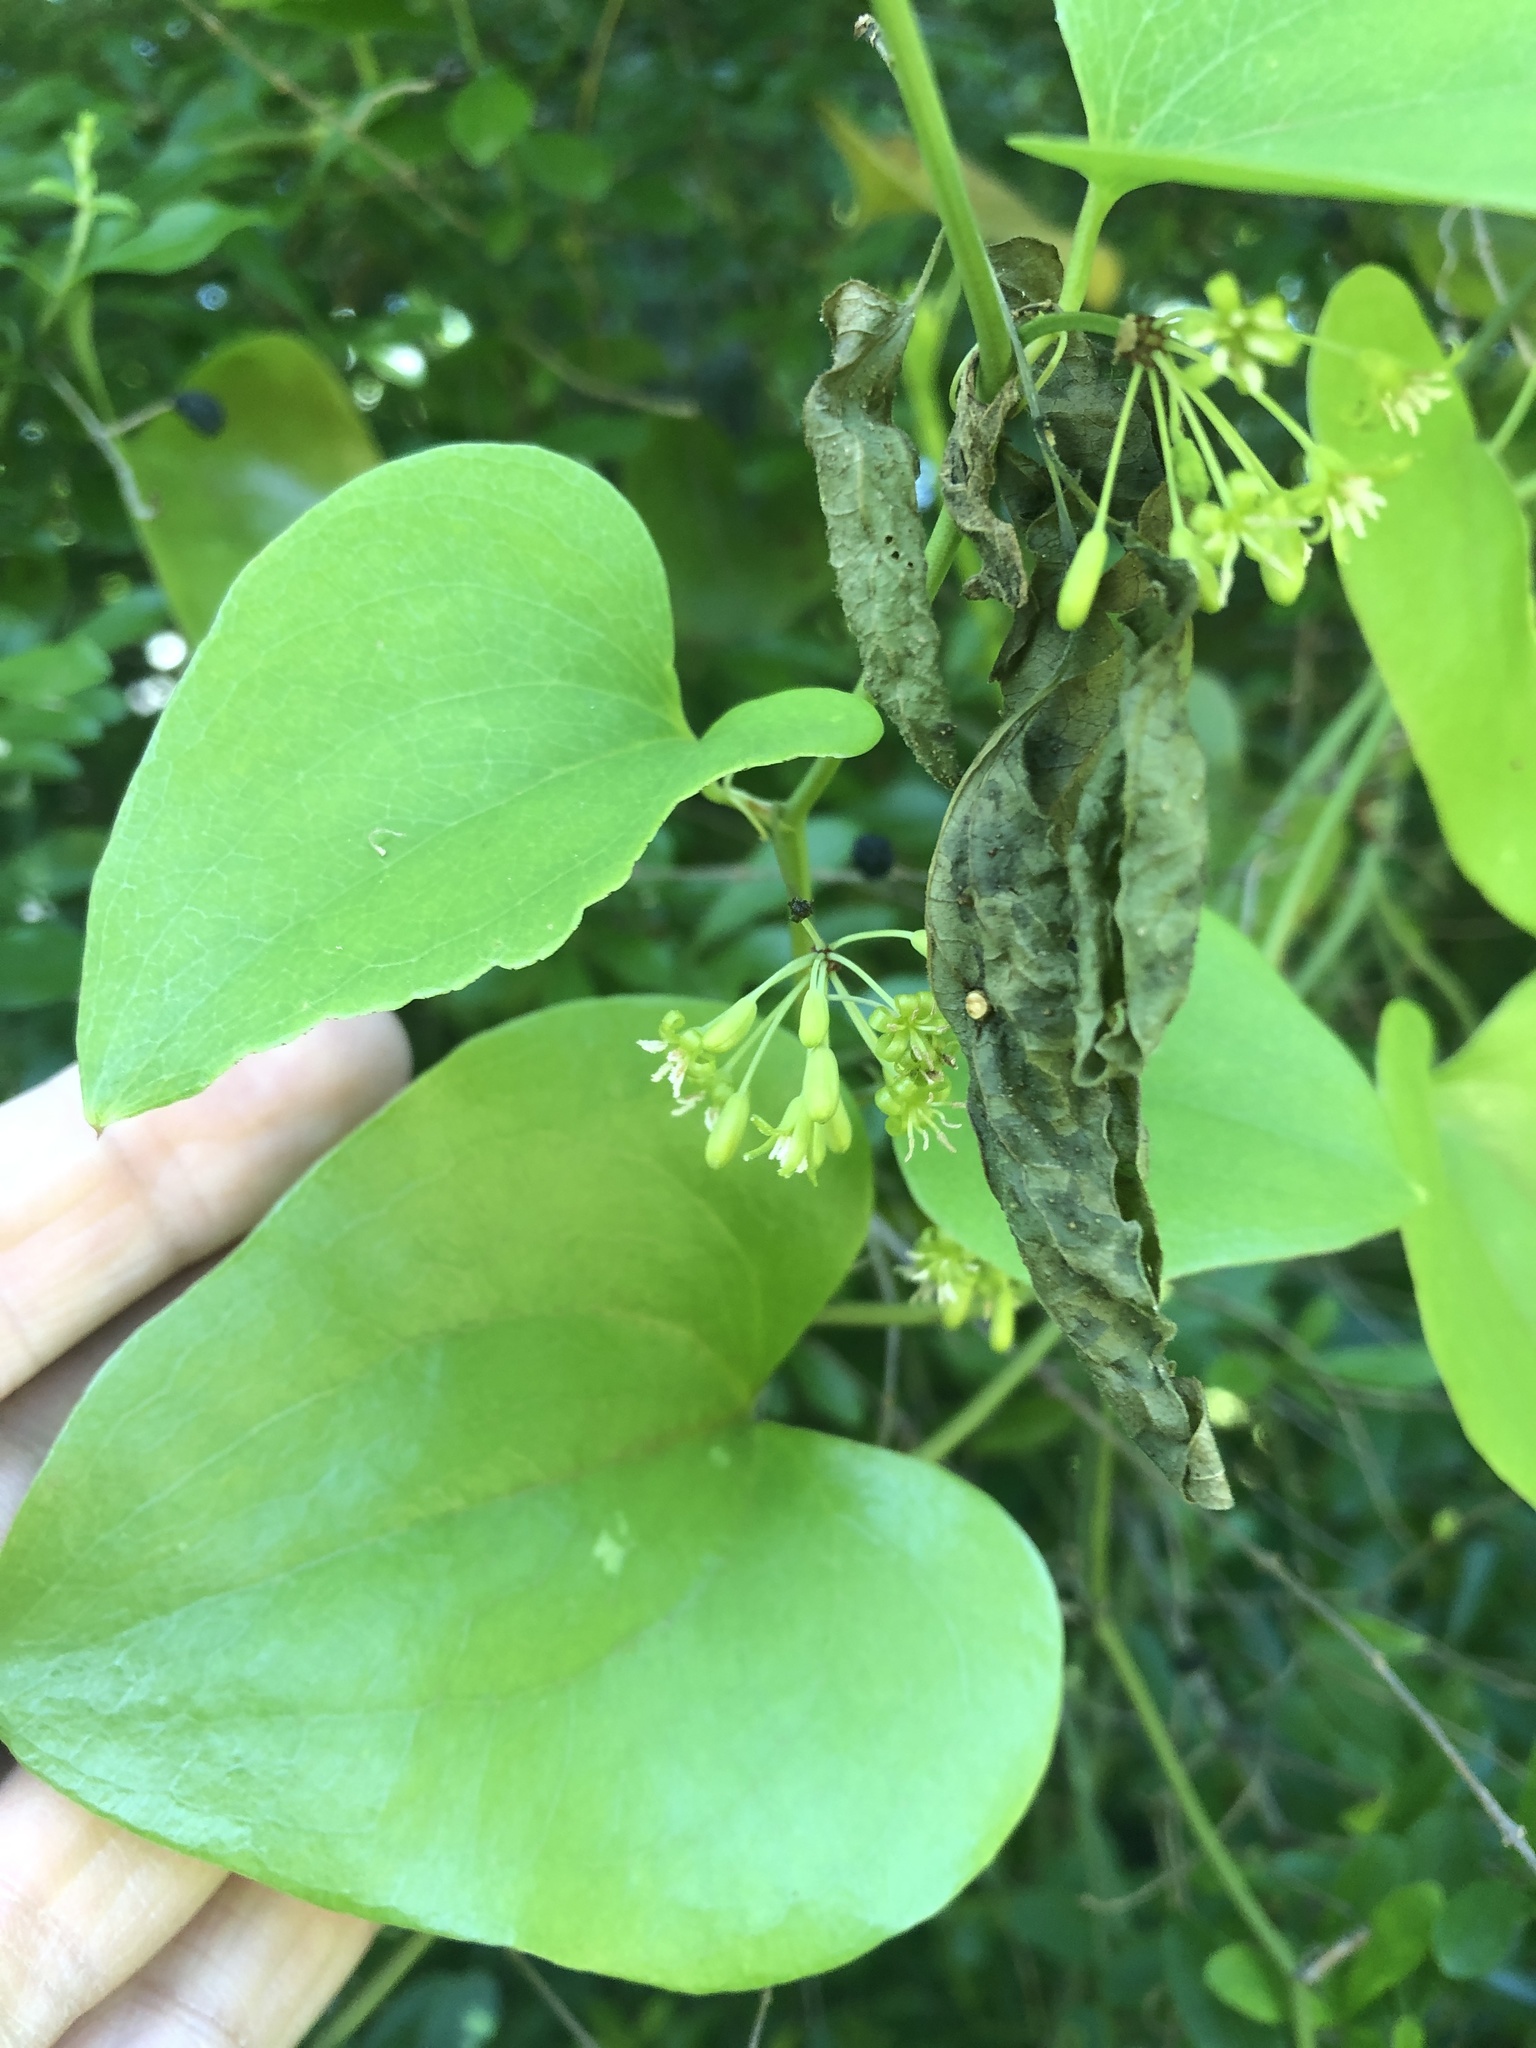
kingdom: Plantae
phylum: Tracheophyta
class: Liliopsida
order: Liliales
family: Smilacaceae
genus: Smilax
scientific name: Smilax bona-nox
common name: Catbrier
